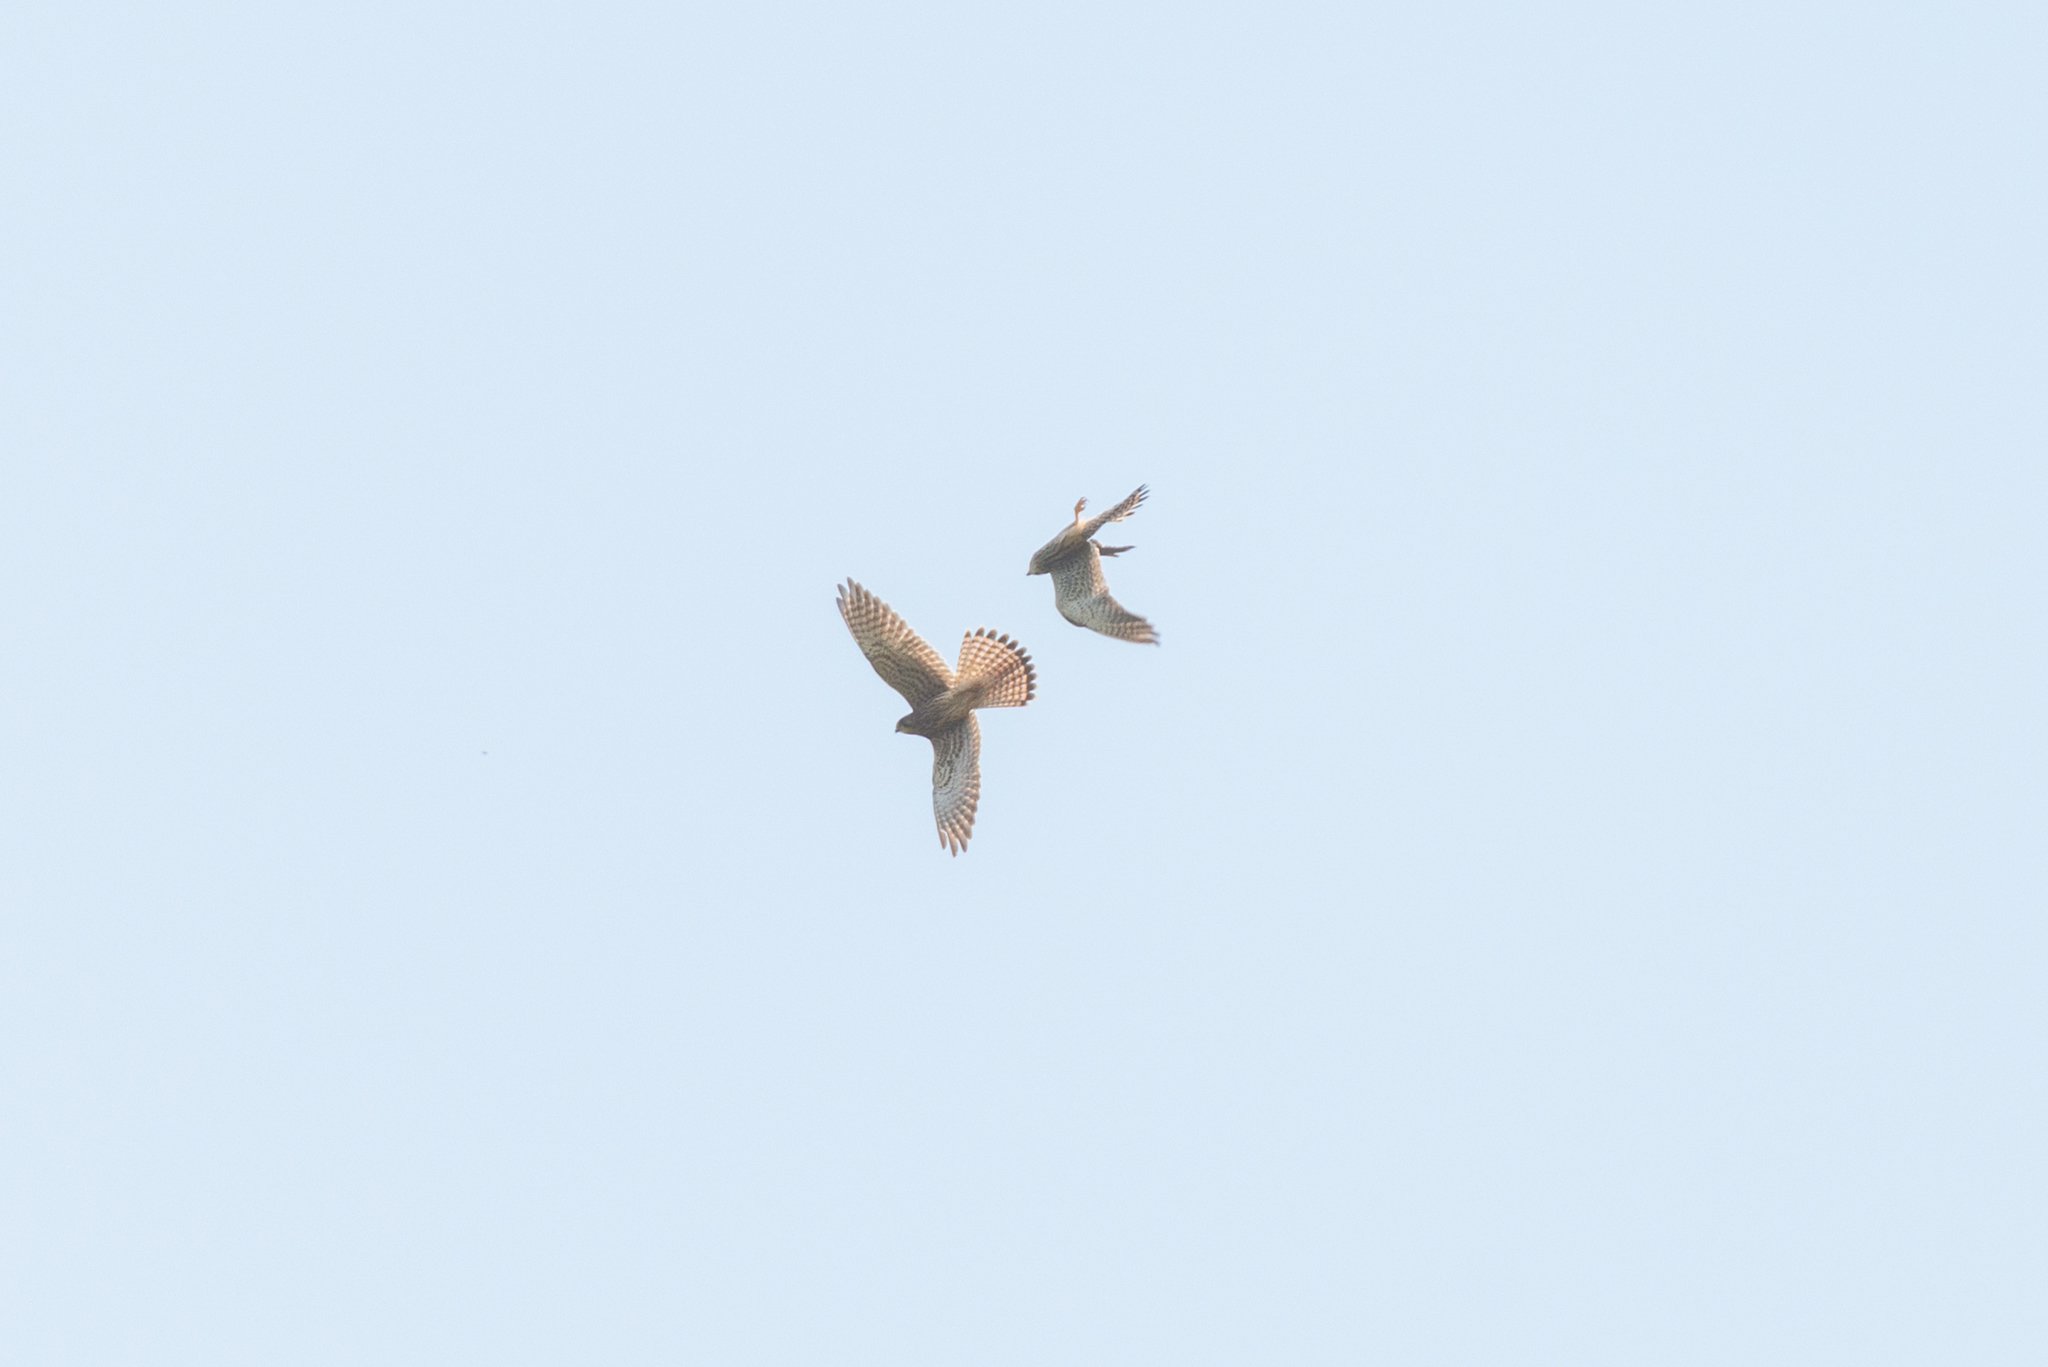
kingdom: Animalia
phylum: Chordata
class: Aves
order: Falconiformes
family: Falconidae
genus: Falco
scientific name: Falco tinnunculus
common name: Common kestrel
